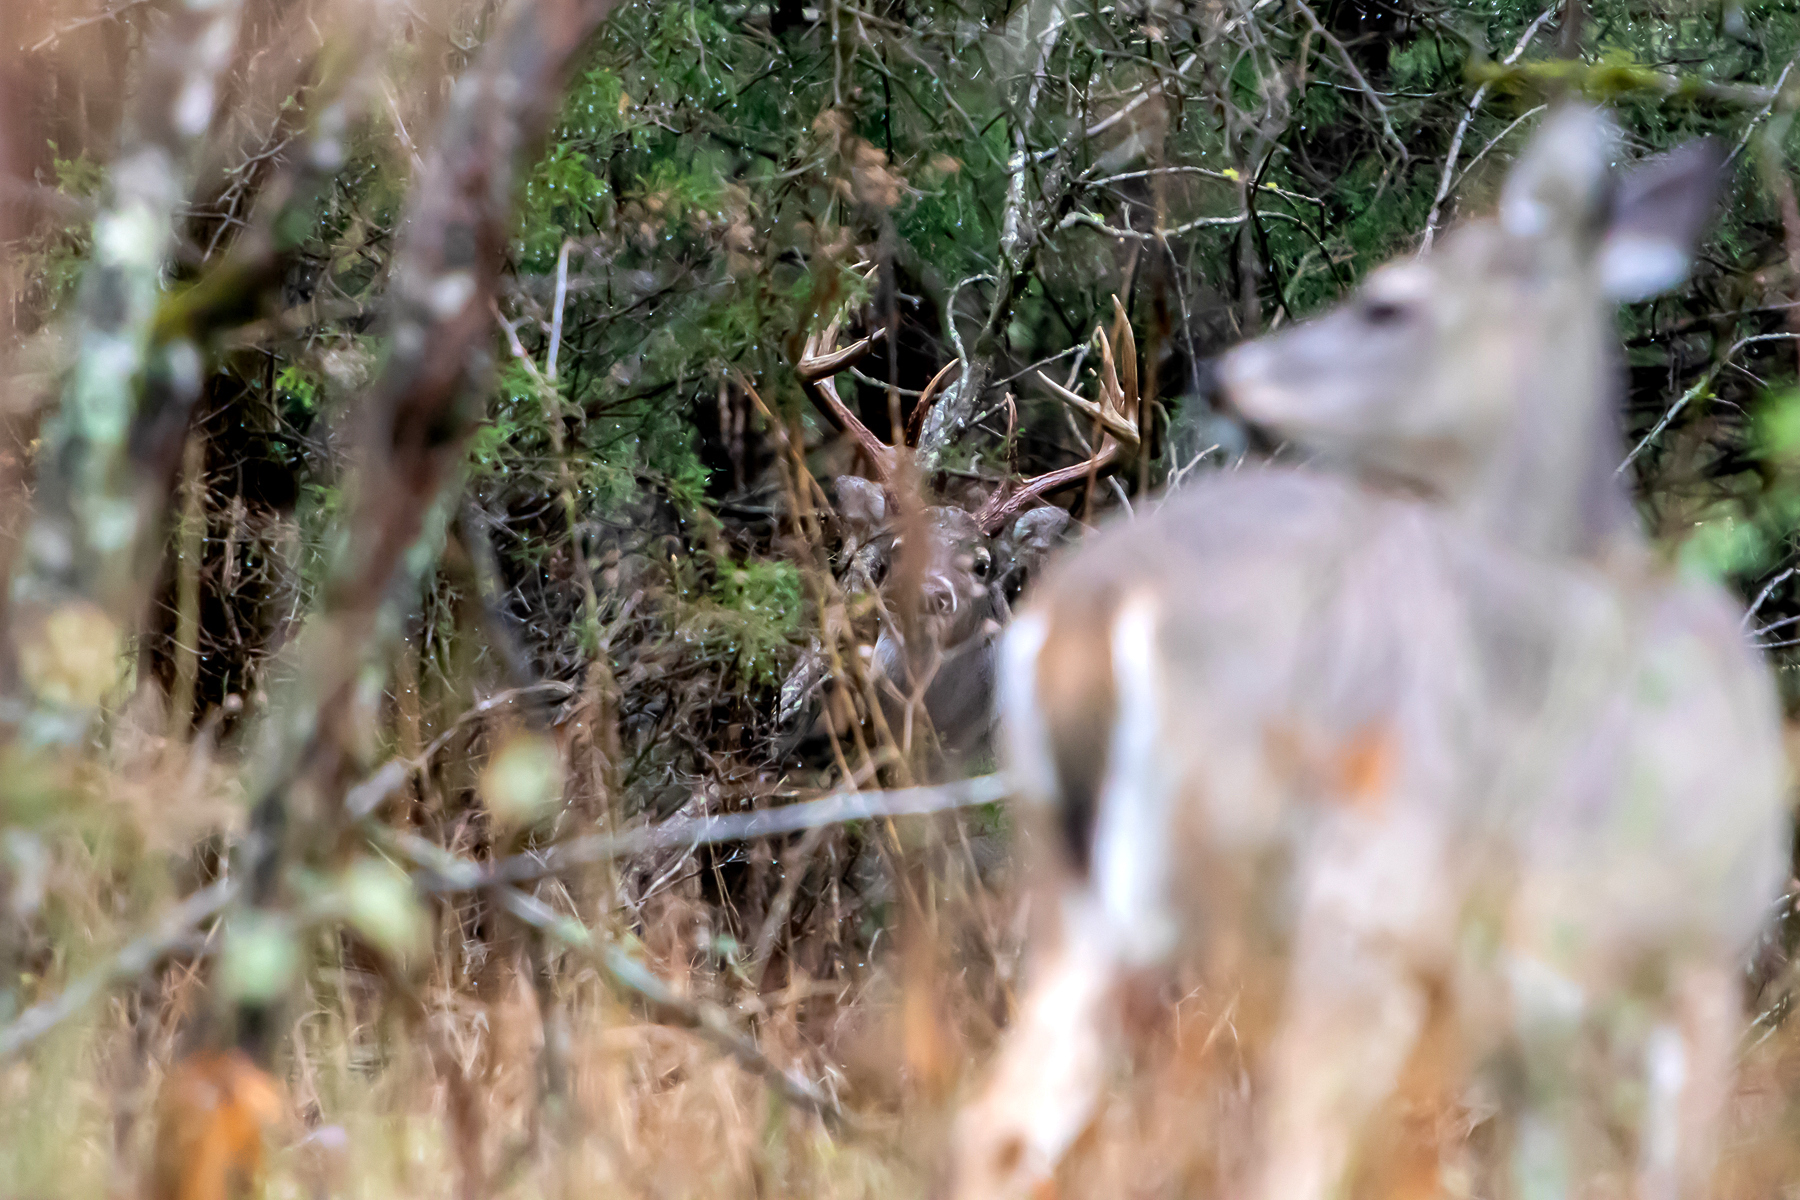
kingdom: Animalia
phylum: Chordata
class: Mammalia
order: Artiodactyla
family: Cervidae
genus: Odocoileus
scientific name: Odocoileus virginianus
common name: White-tailed deer
